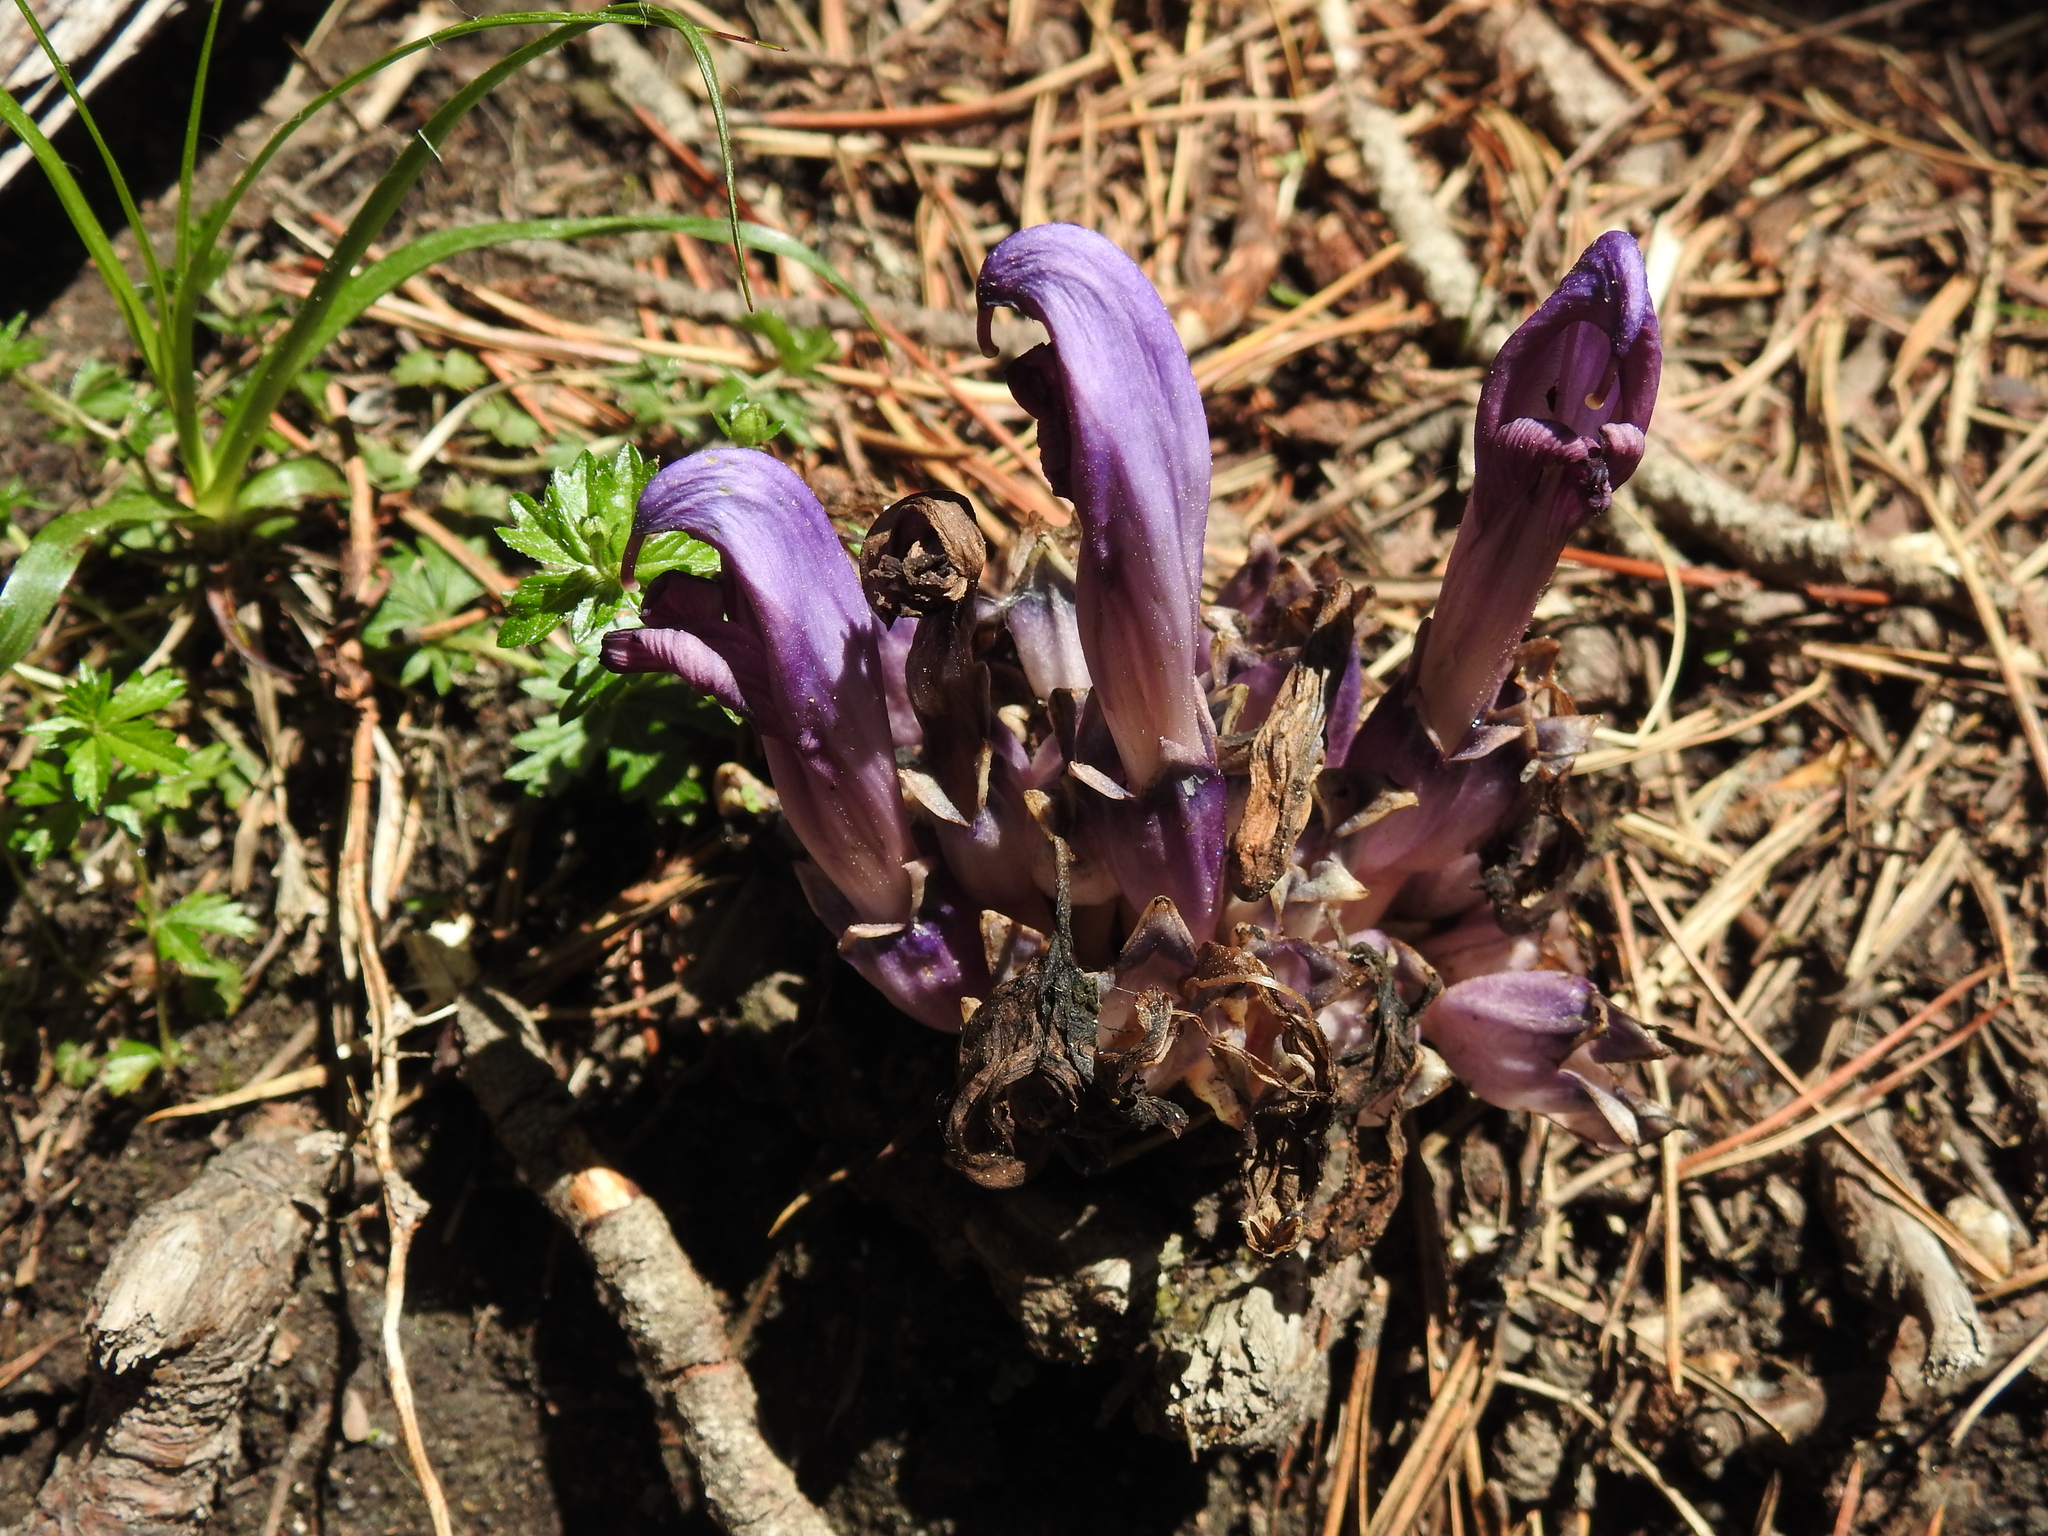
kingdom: Plantae
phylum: Tracheophyta
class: Magnoliopsida
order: Lamiales
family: Orobanchaceae
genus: Lathraea
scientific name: Lathraea clandestina
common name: Purple toothwort
